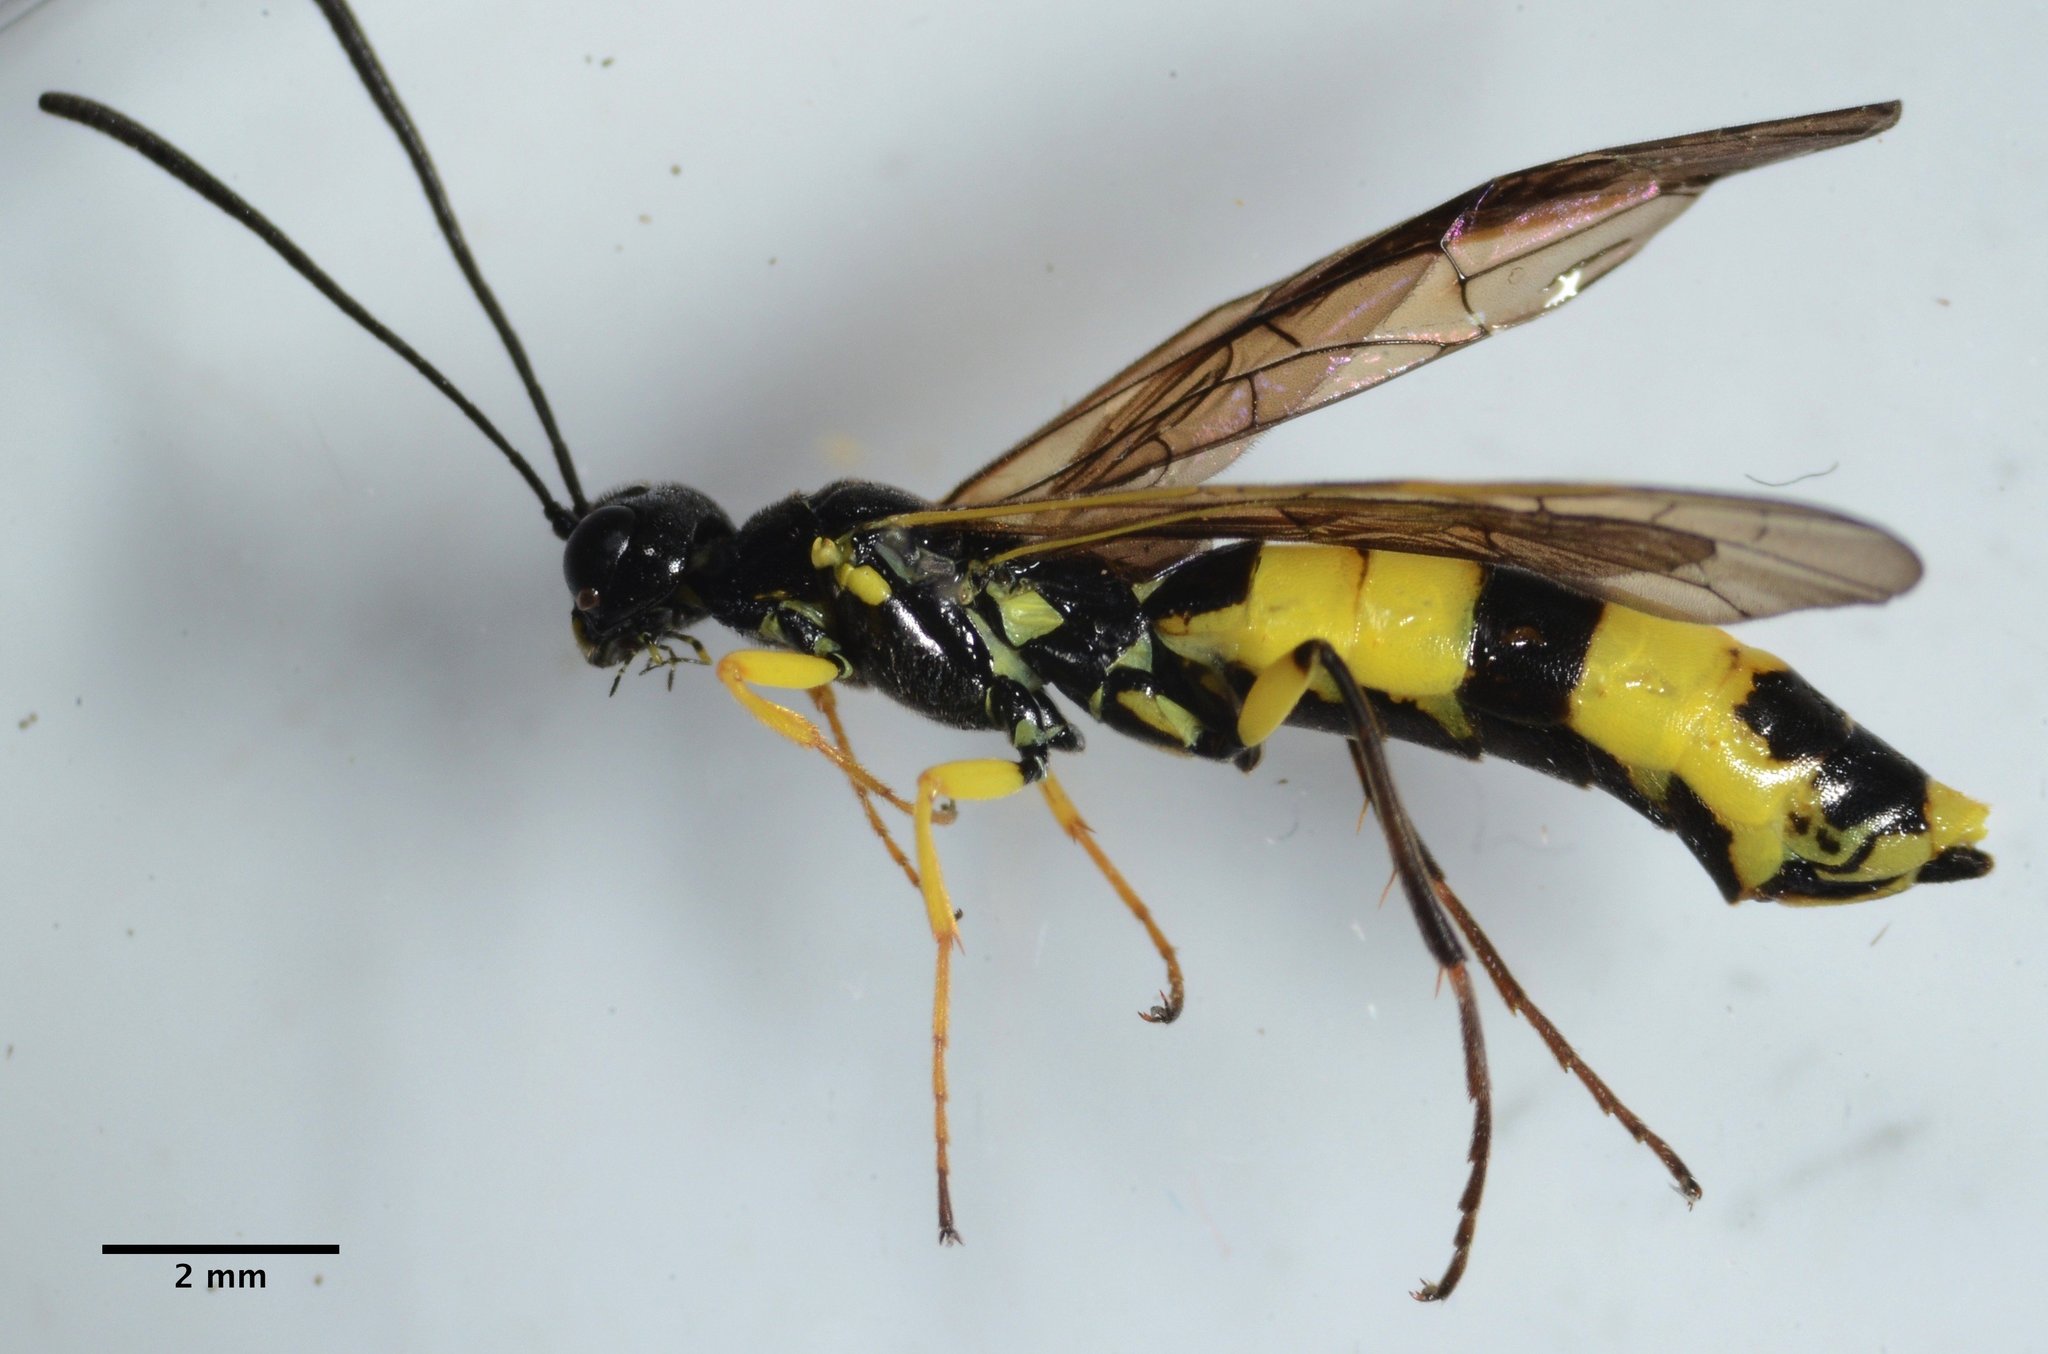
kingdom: Animalia
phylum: Arthropoda
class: Insecta
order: Hymenoptera
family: Cephidae
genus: Calameuta
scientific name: Calameuta
